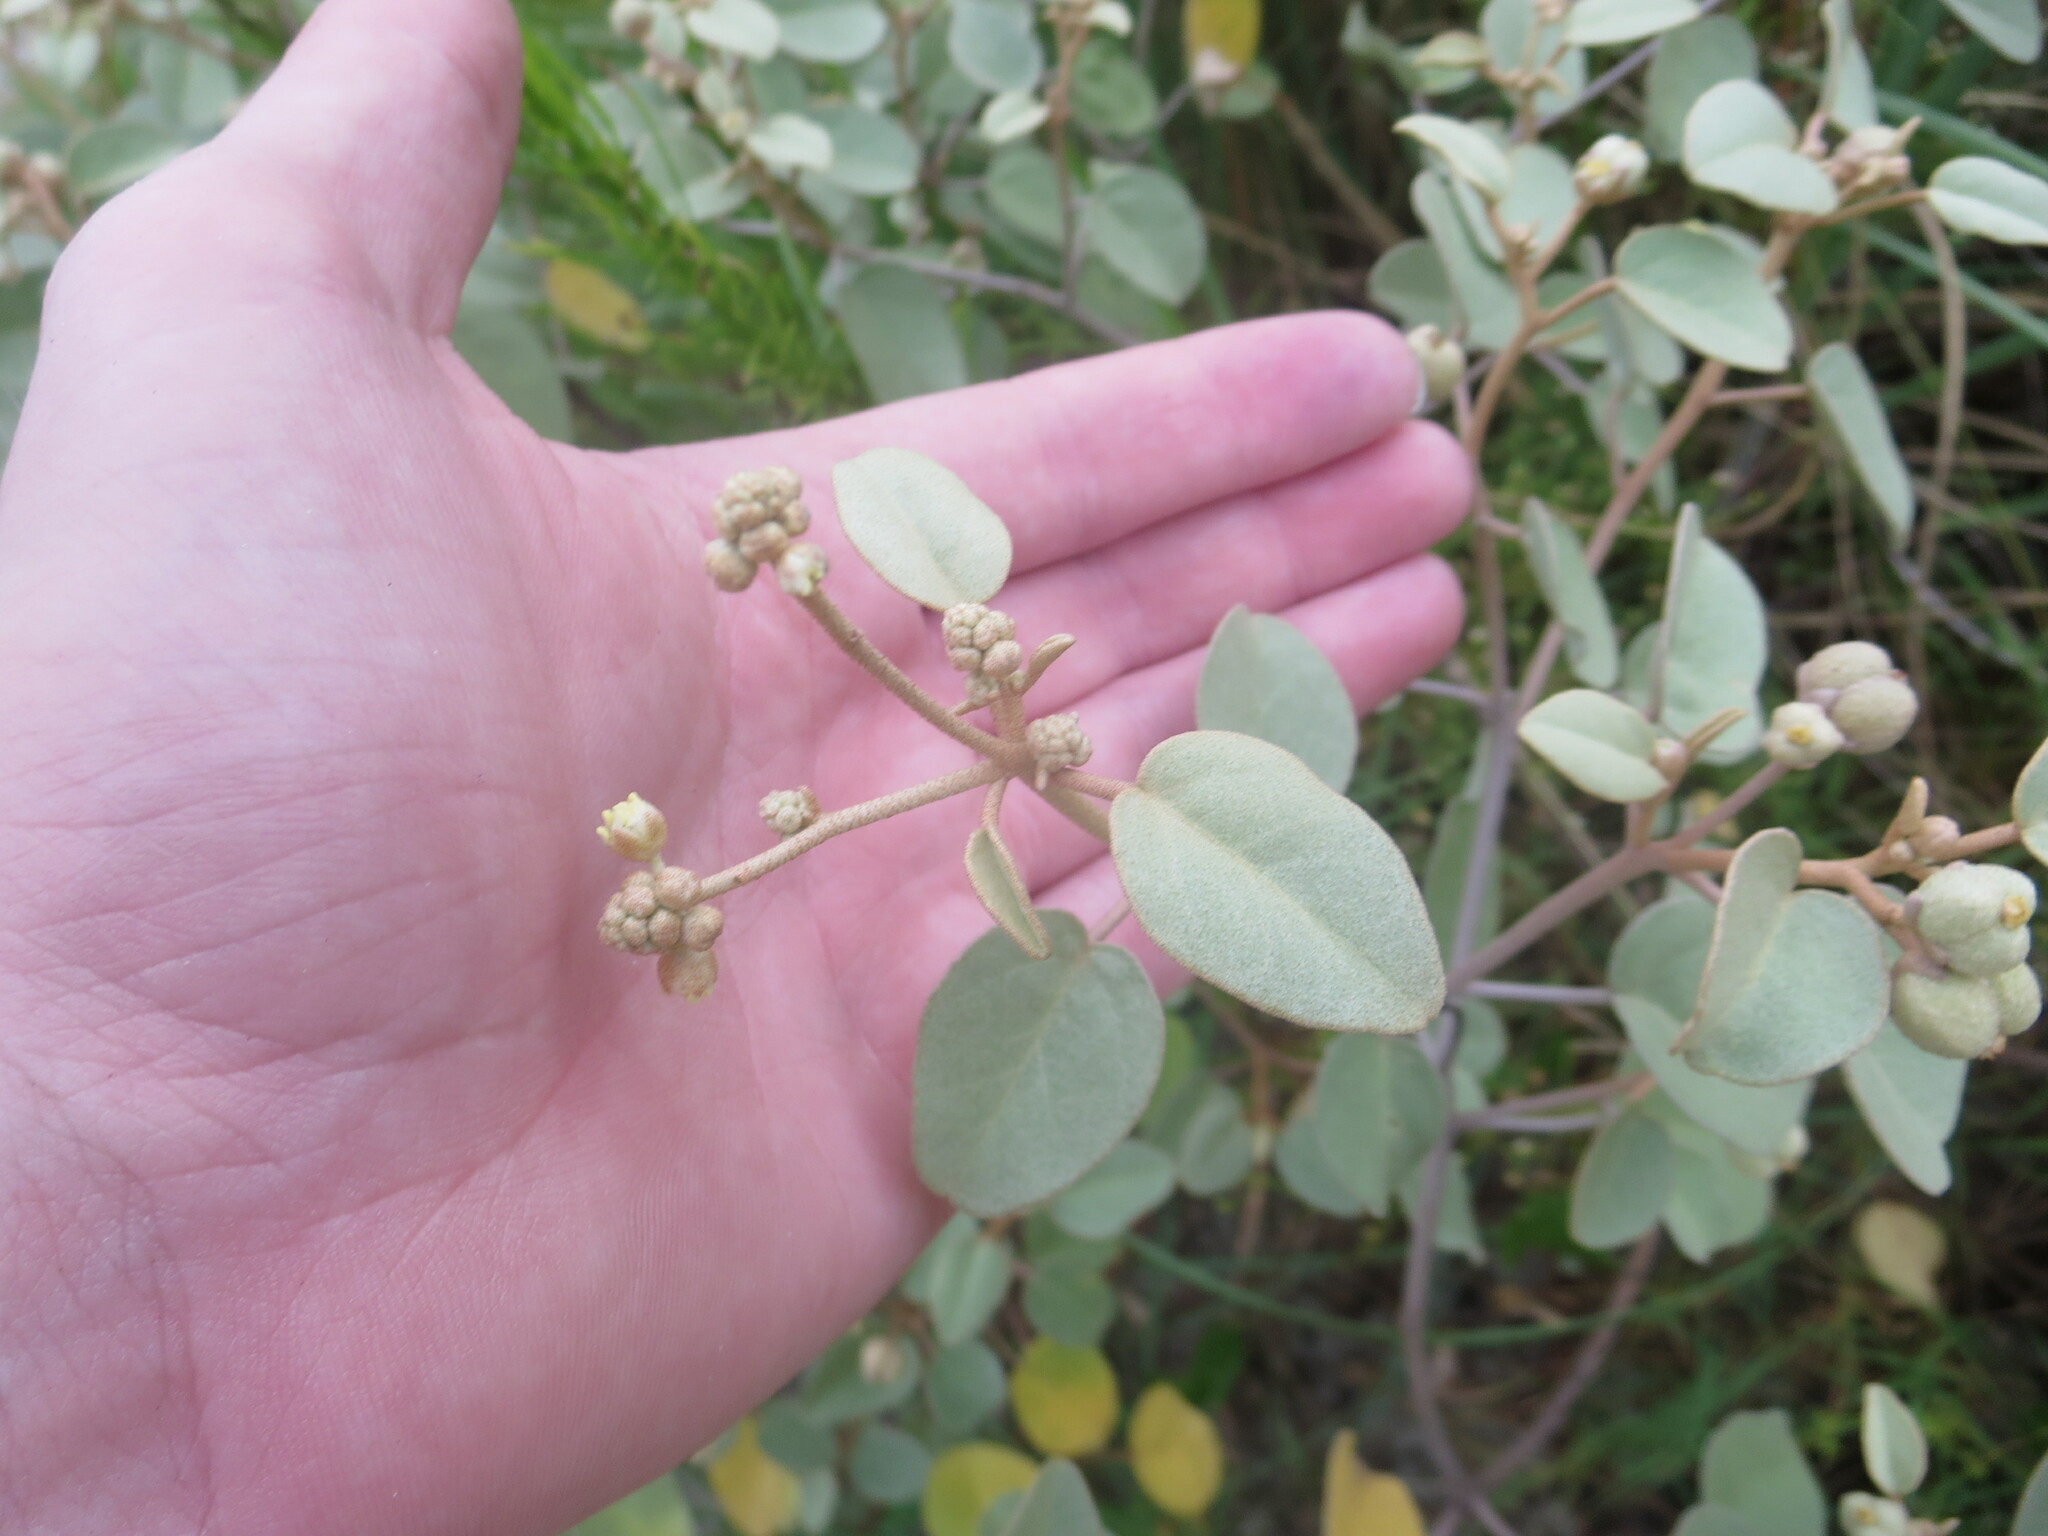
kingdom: Plantae
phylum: Tracheophyta
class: Magnoliopsida
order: Malpighiales
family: Euphorbiaceae
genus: Croton
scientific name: Croton punctatus
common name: Beach-tea
